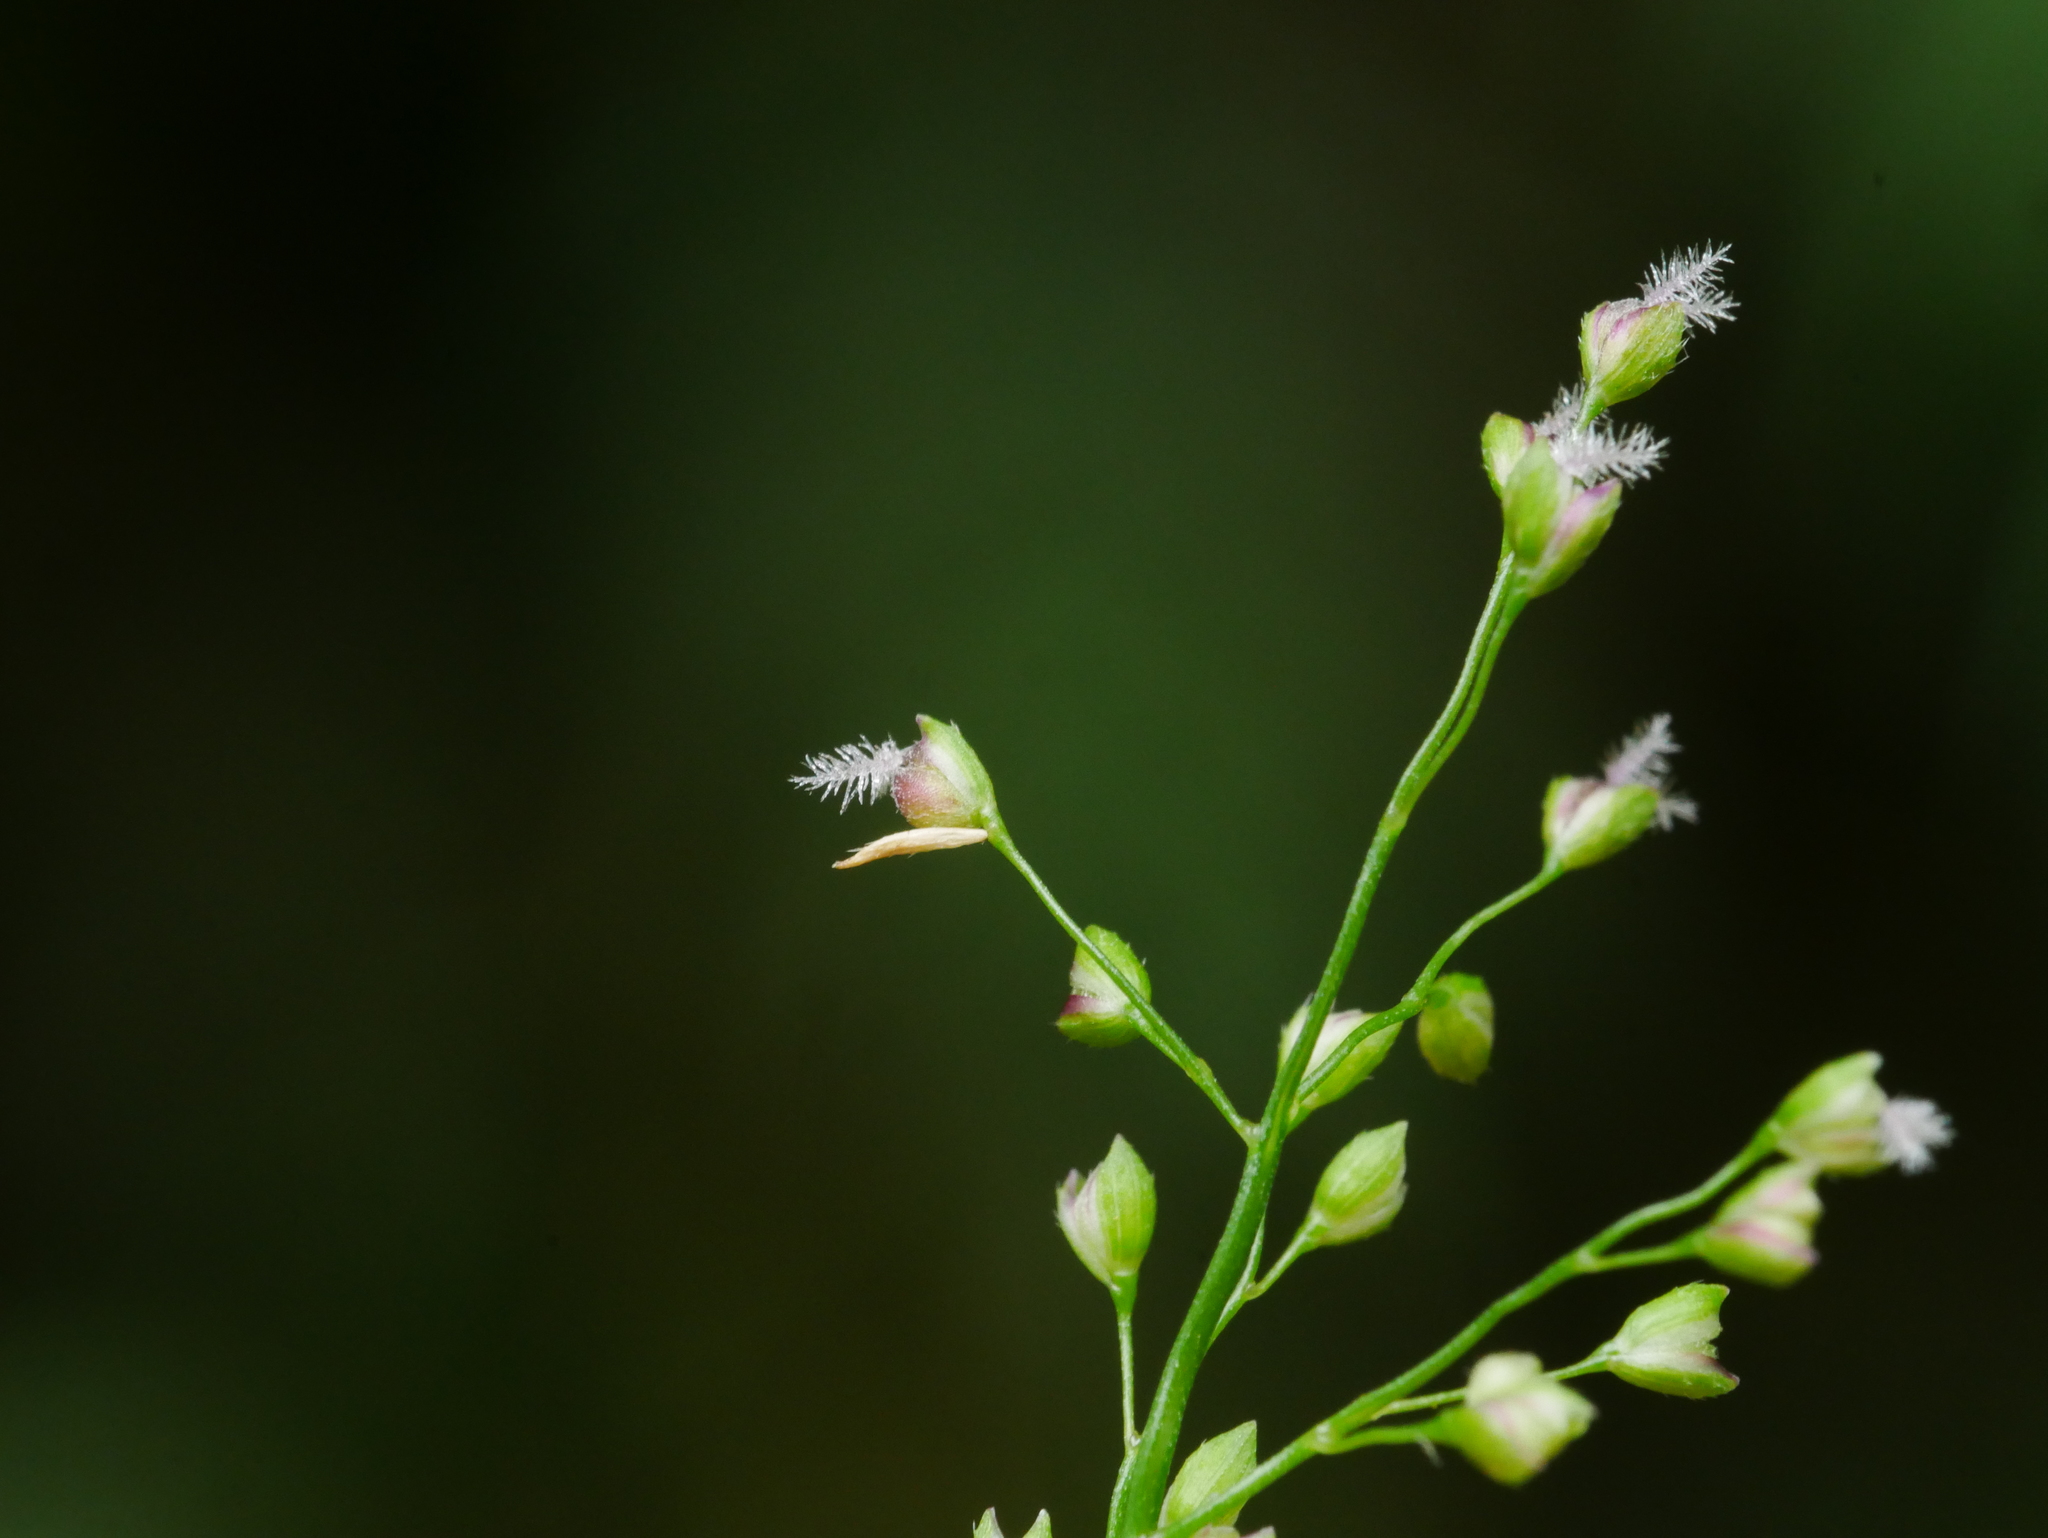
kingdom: Plantae
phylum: Tracheophyta
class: Liliopsida
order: Poales
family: Poaceae
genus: Isachne
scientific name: Isachne myosotis
